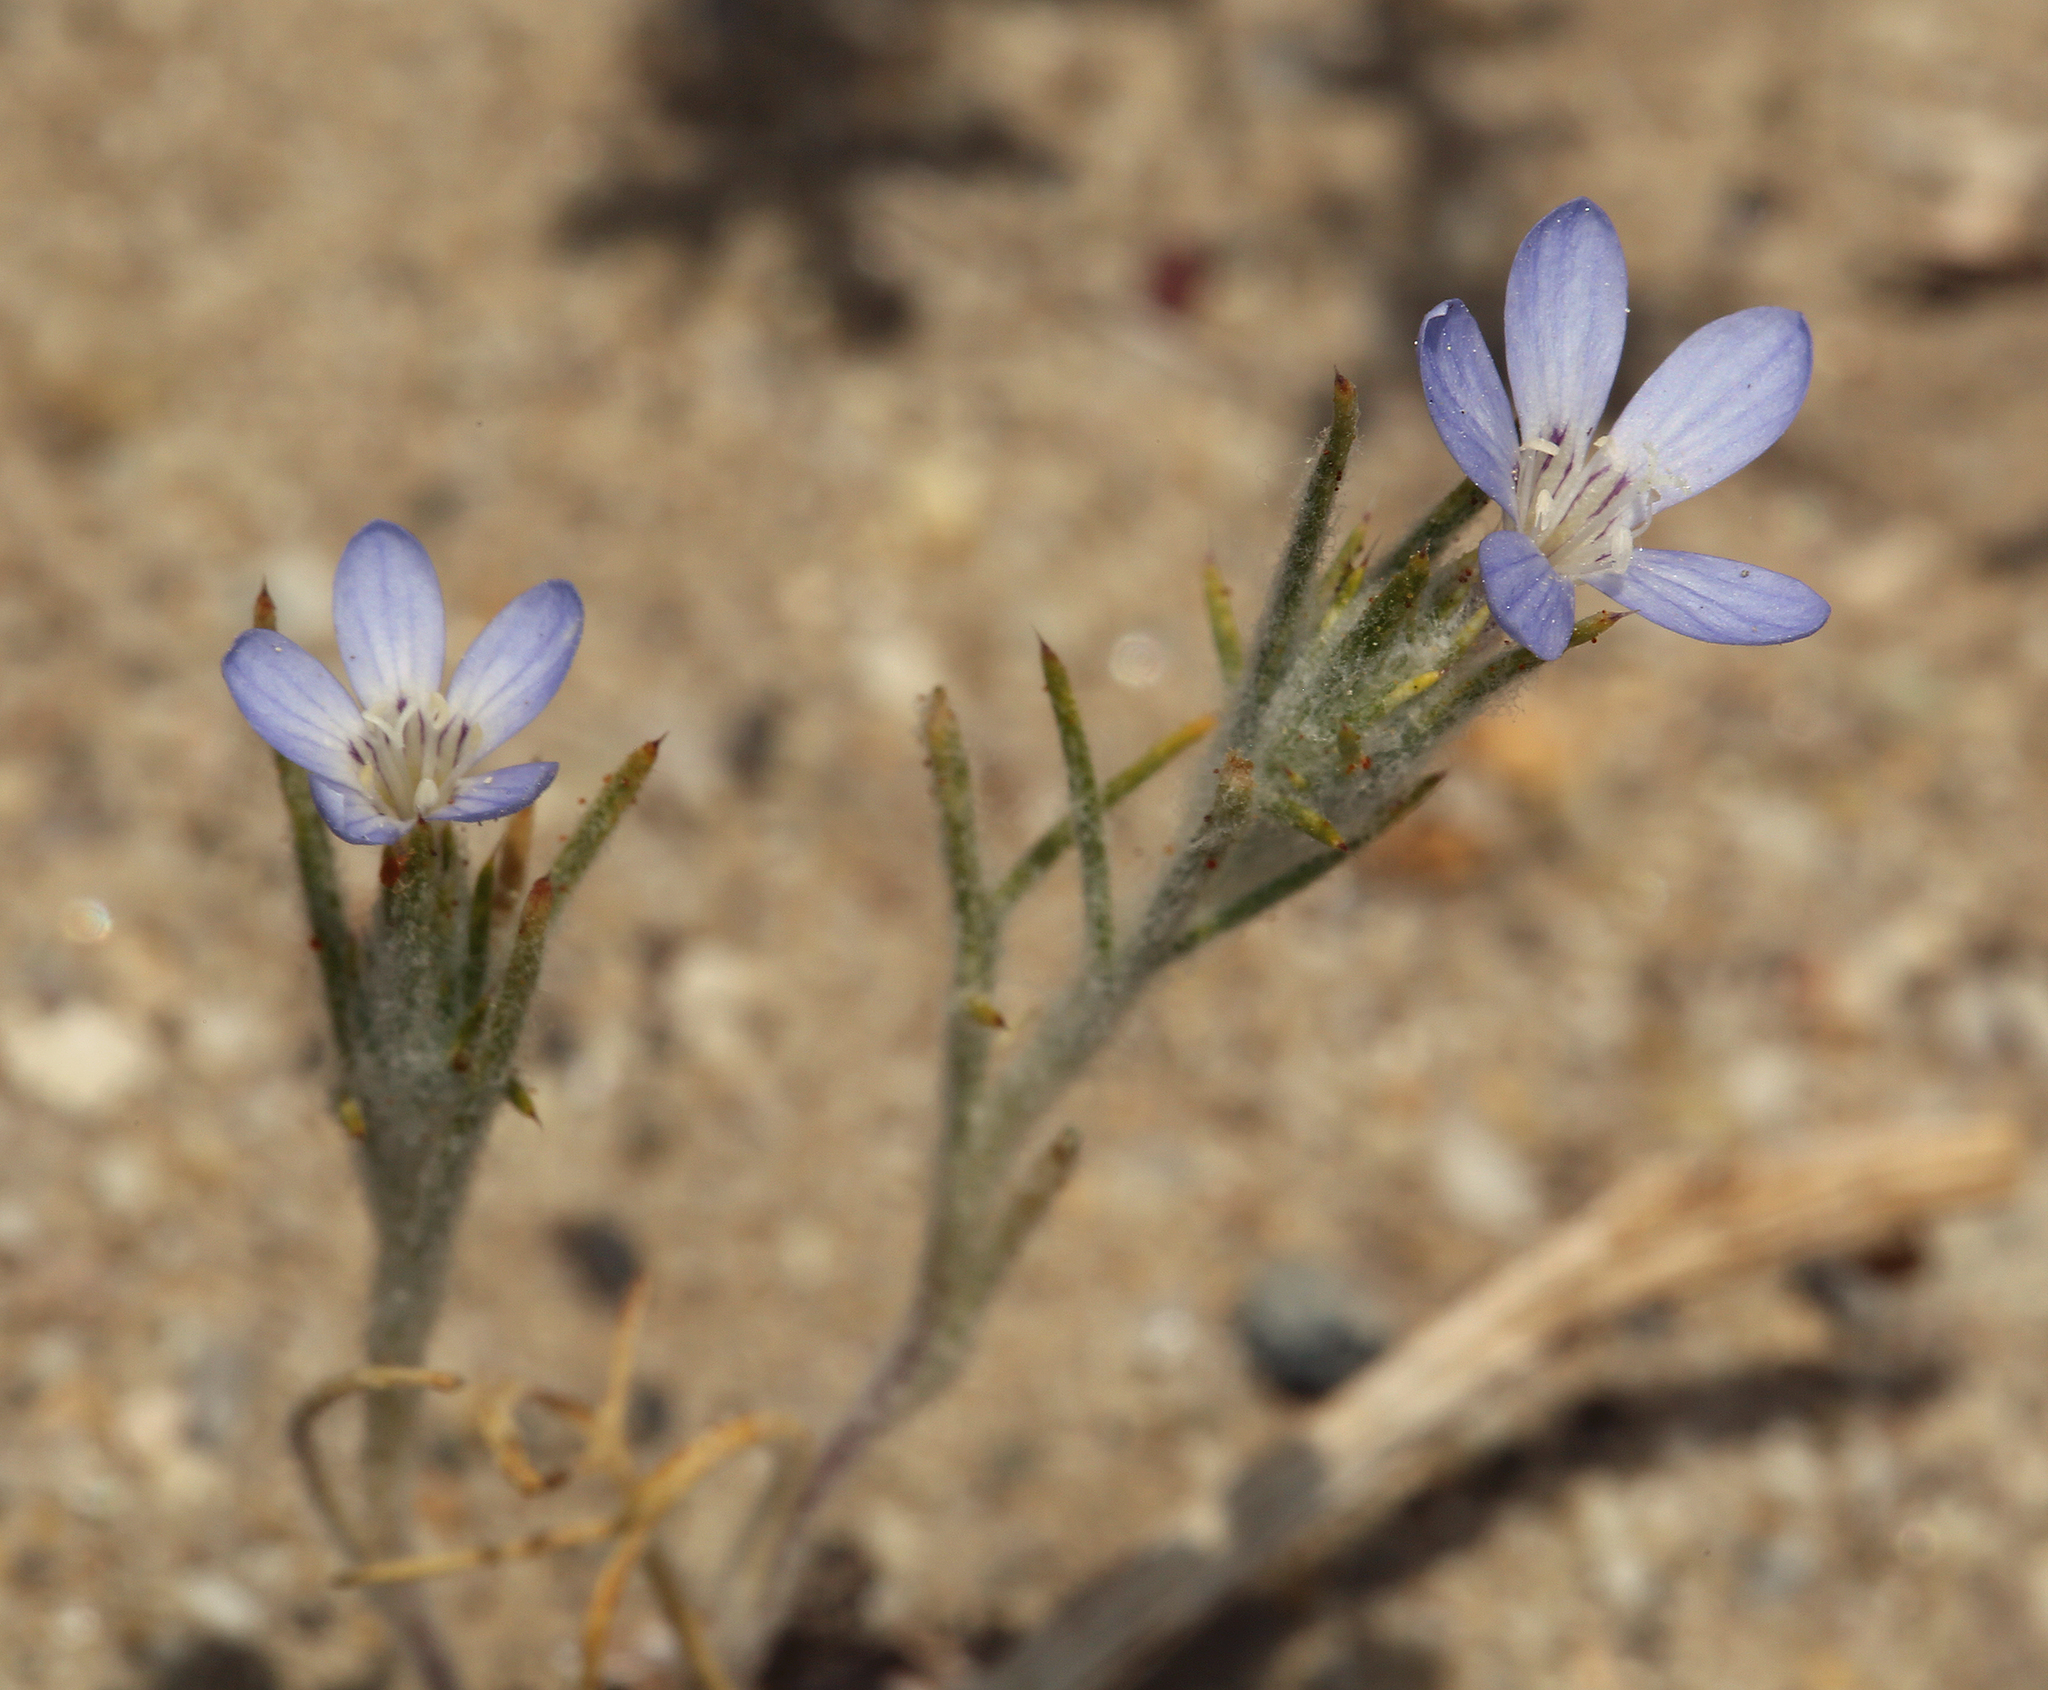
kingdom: Plantae
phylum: Tracheophyta
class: Magnoliopsida
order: Ericales
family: Polemoniaceae
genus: Eriastrum
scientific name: Eriastrum wilcoxii
